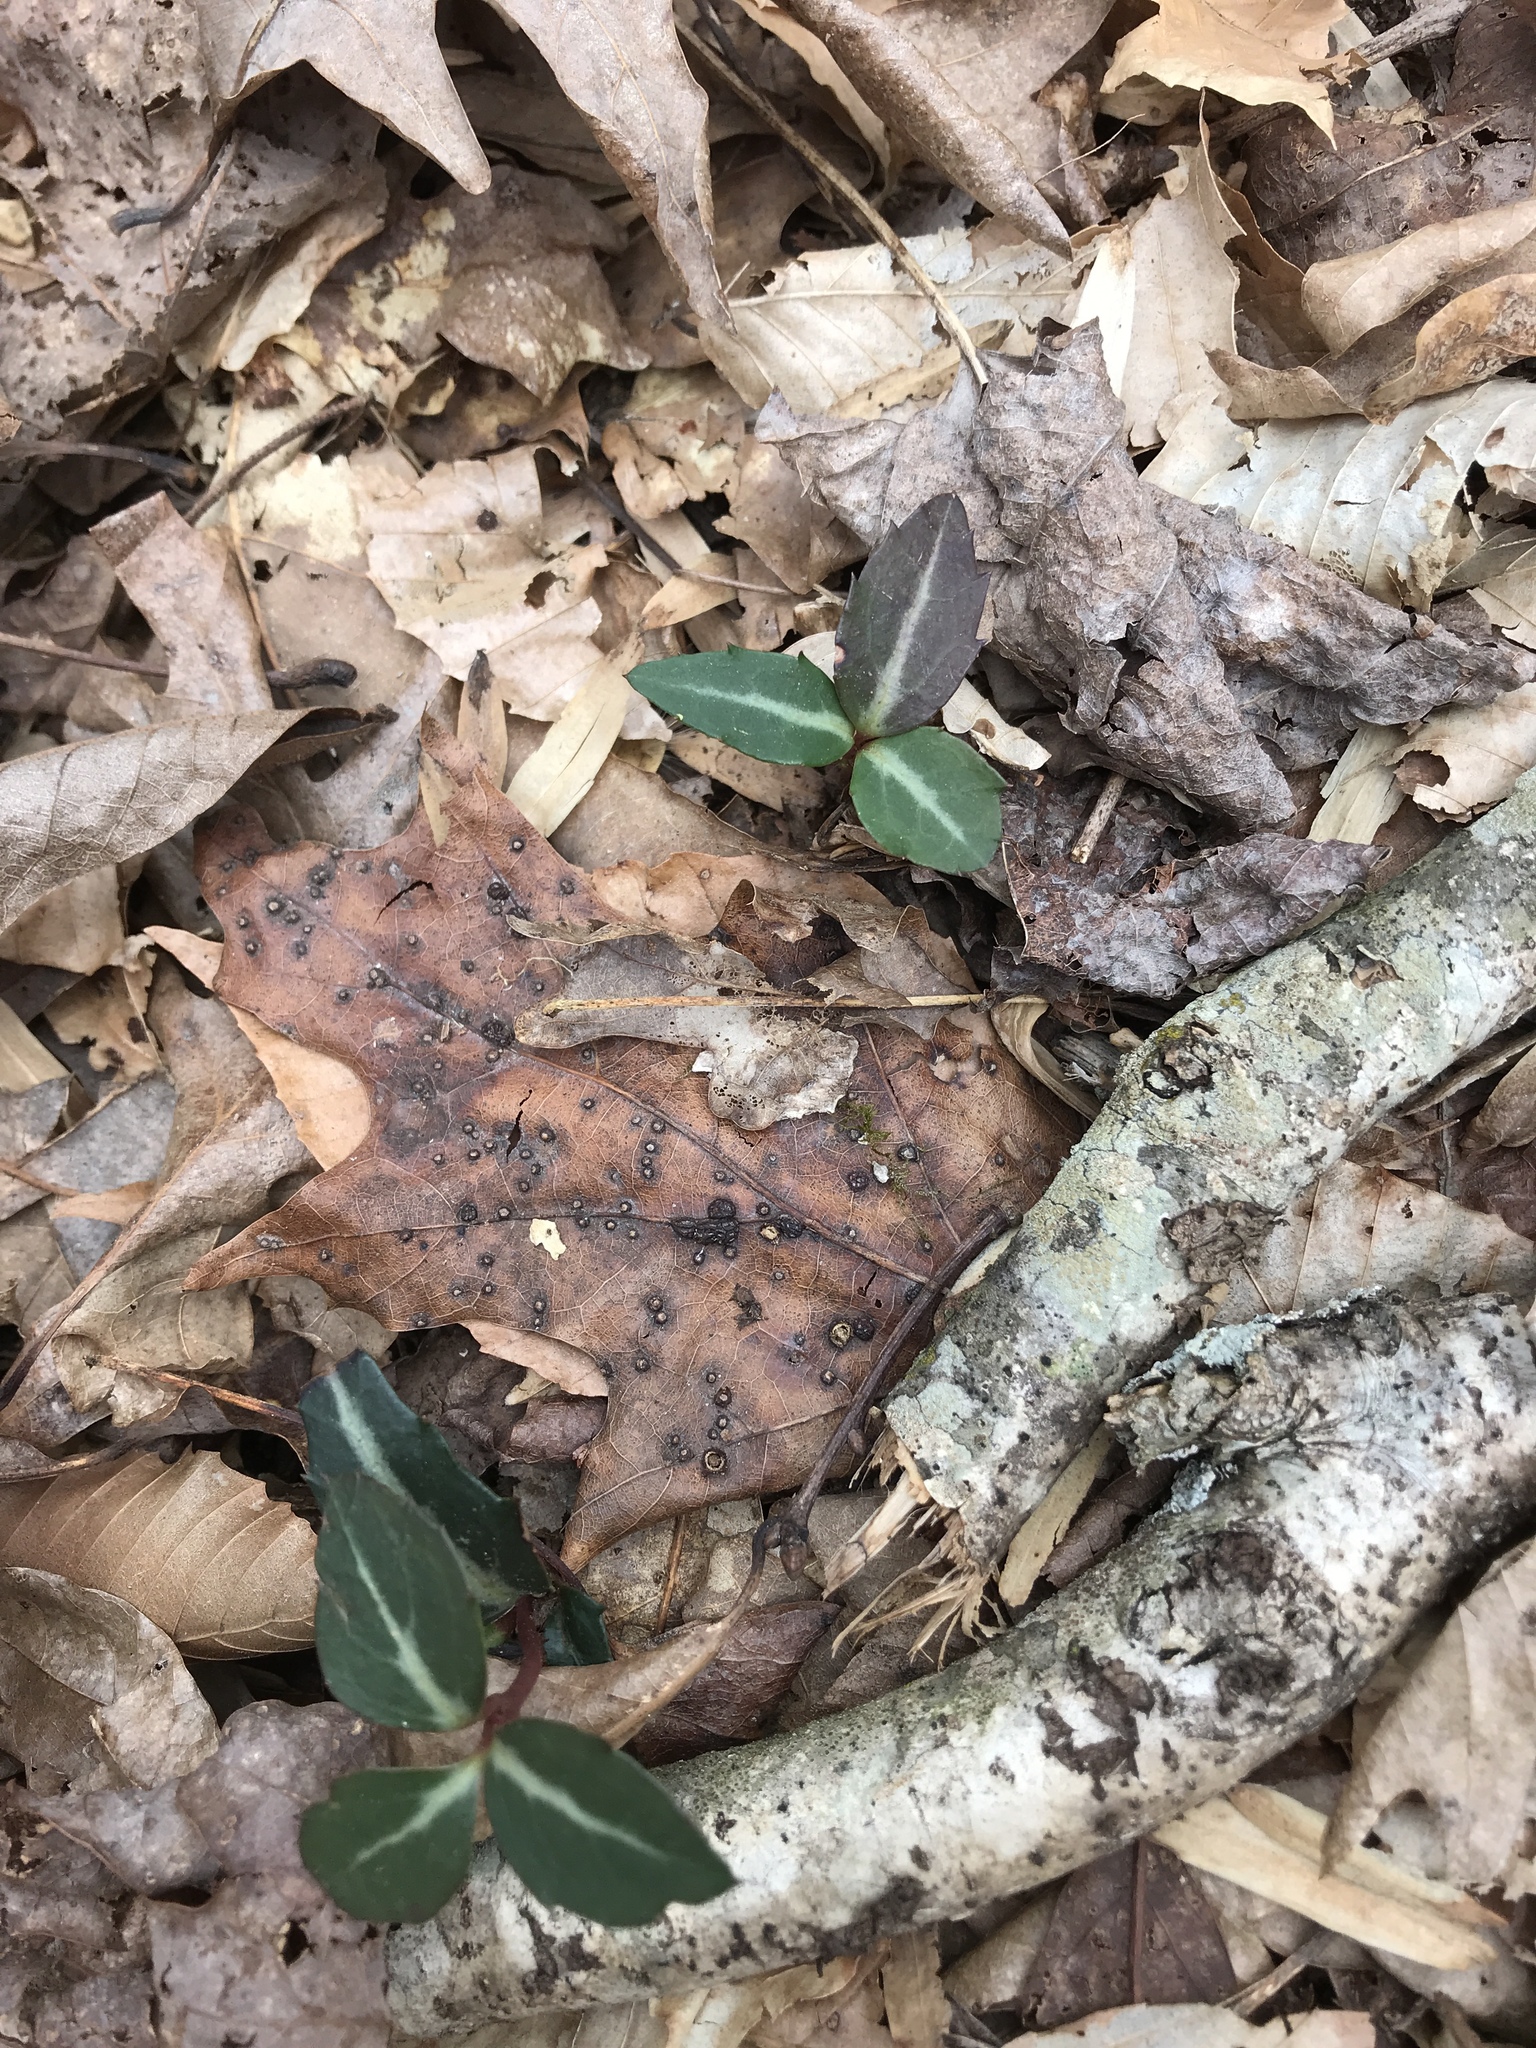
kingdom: Plantae
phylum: Tracheophyta
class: Magnoliopsida
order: Ericales
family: Ericaceae
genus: Chimaphila
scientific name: Chimaphila maculata
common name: Spotted pipsissewa
